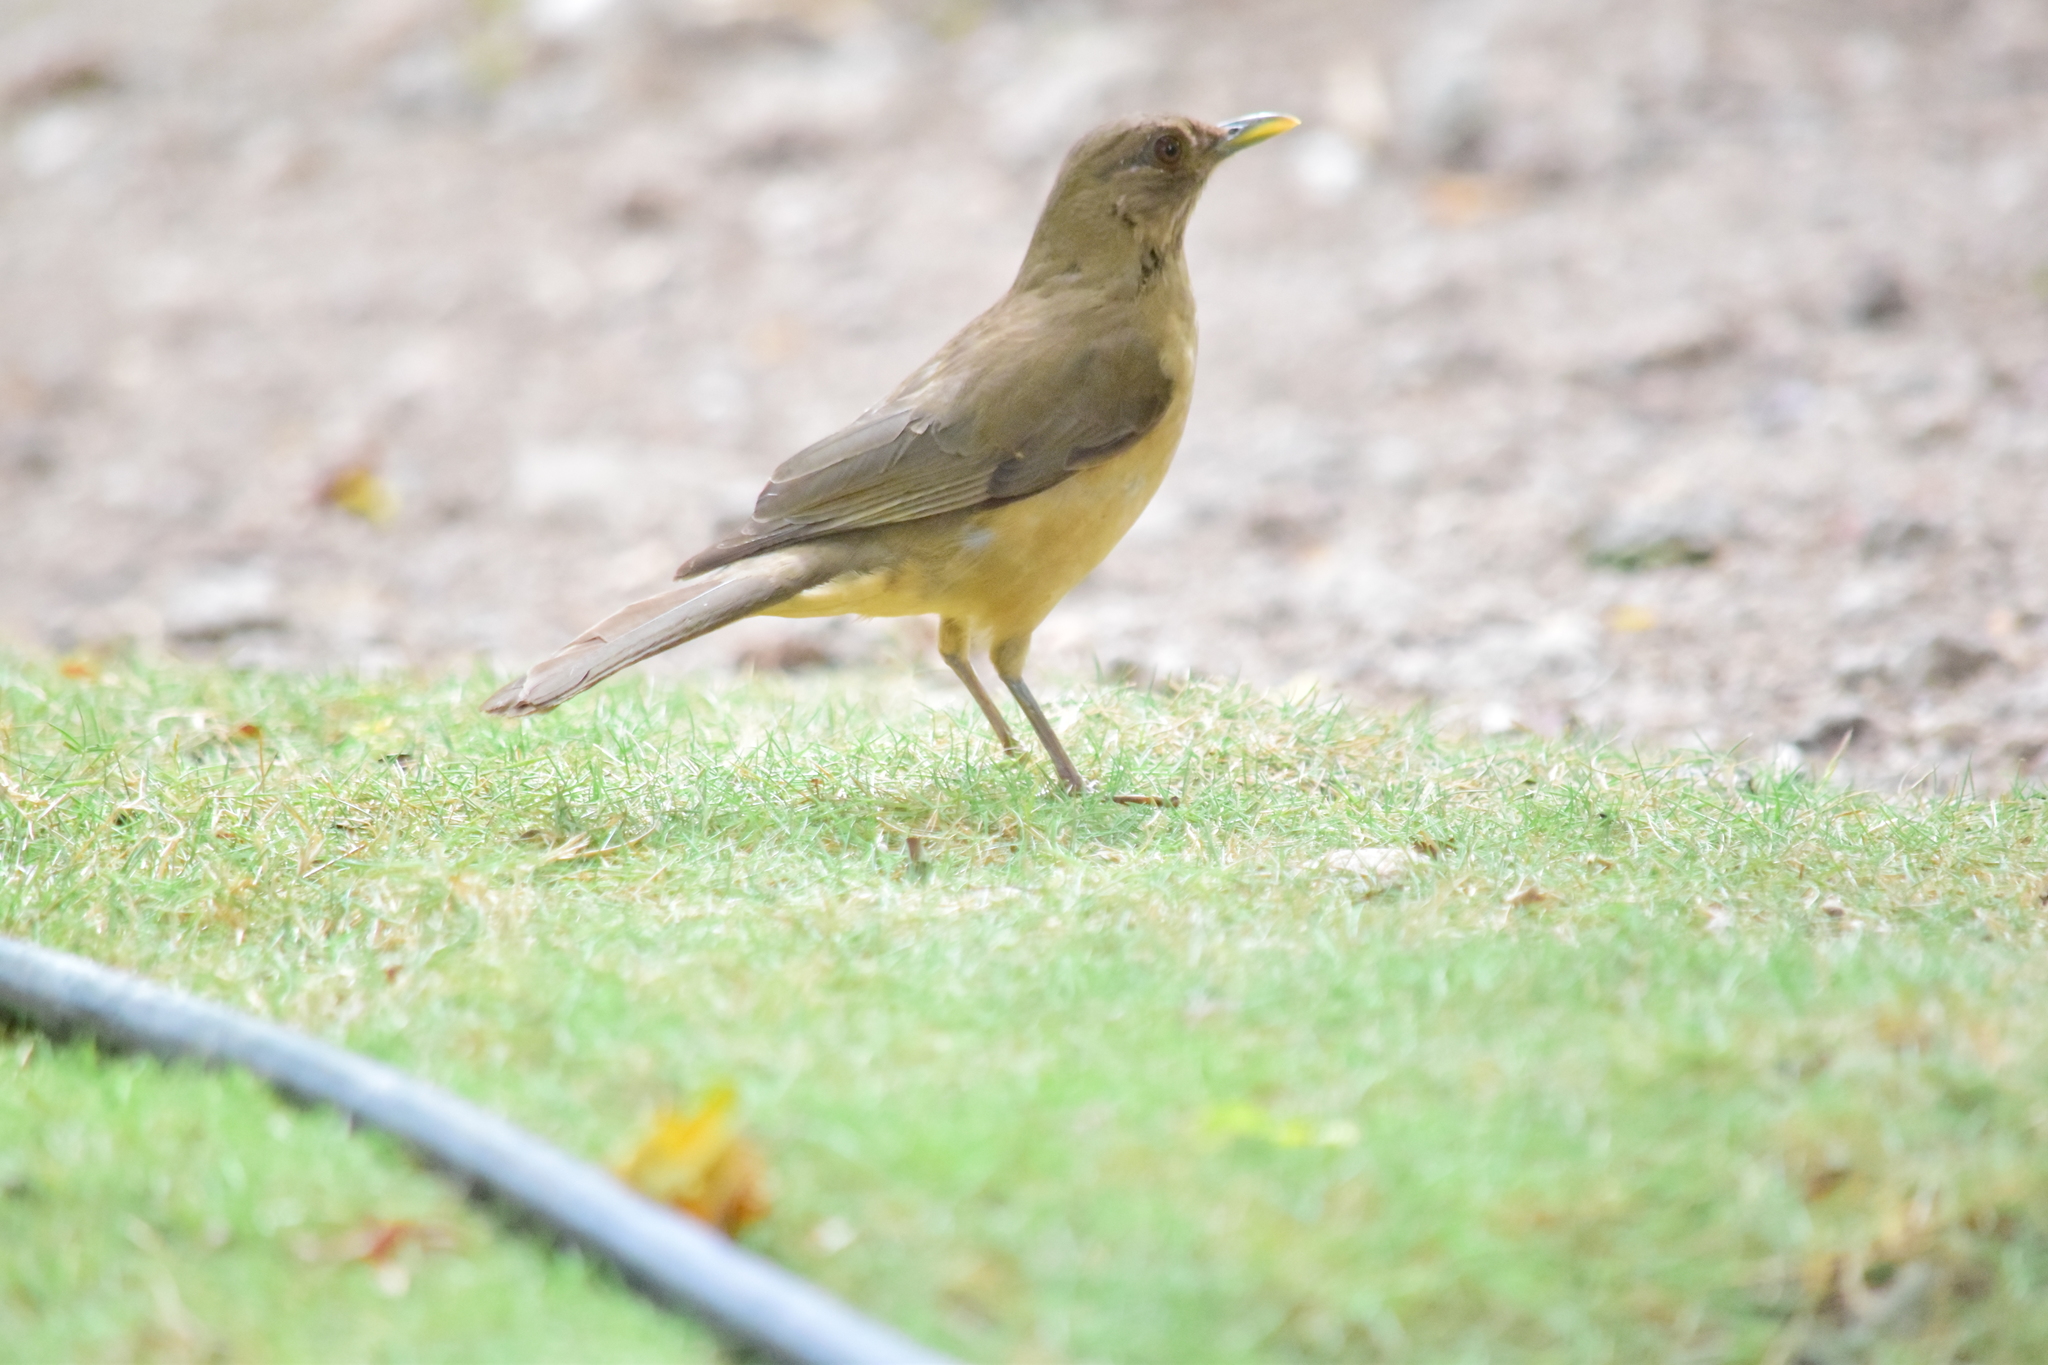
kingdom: Animalia
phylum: Chordata
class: Aves
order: Passeriformes
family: Turdidae
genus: Turdus
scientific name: Turdus grayi
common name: Clay-colored thrush
